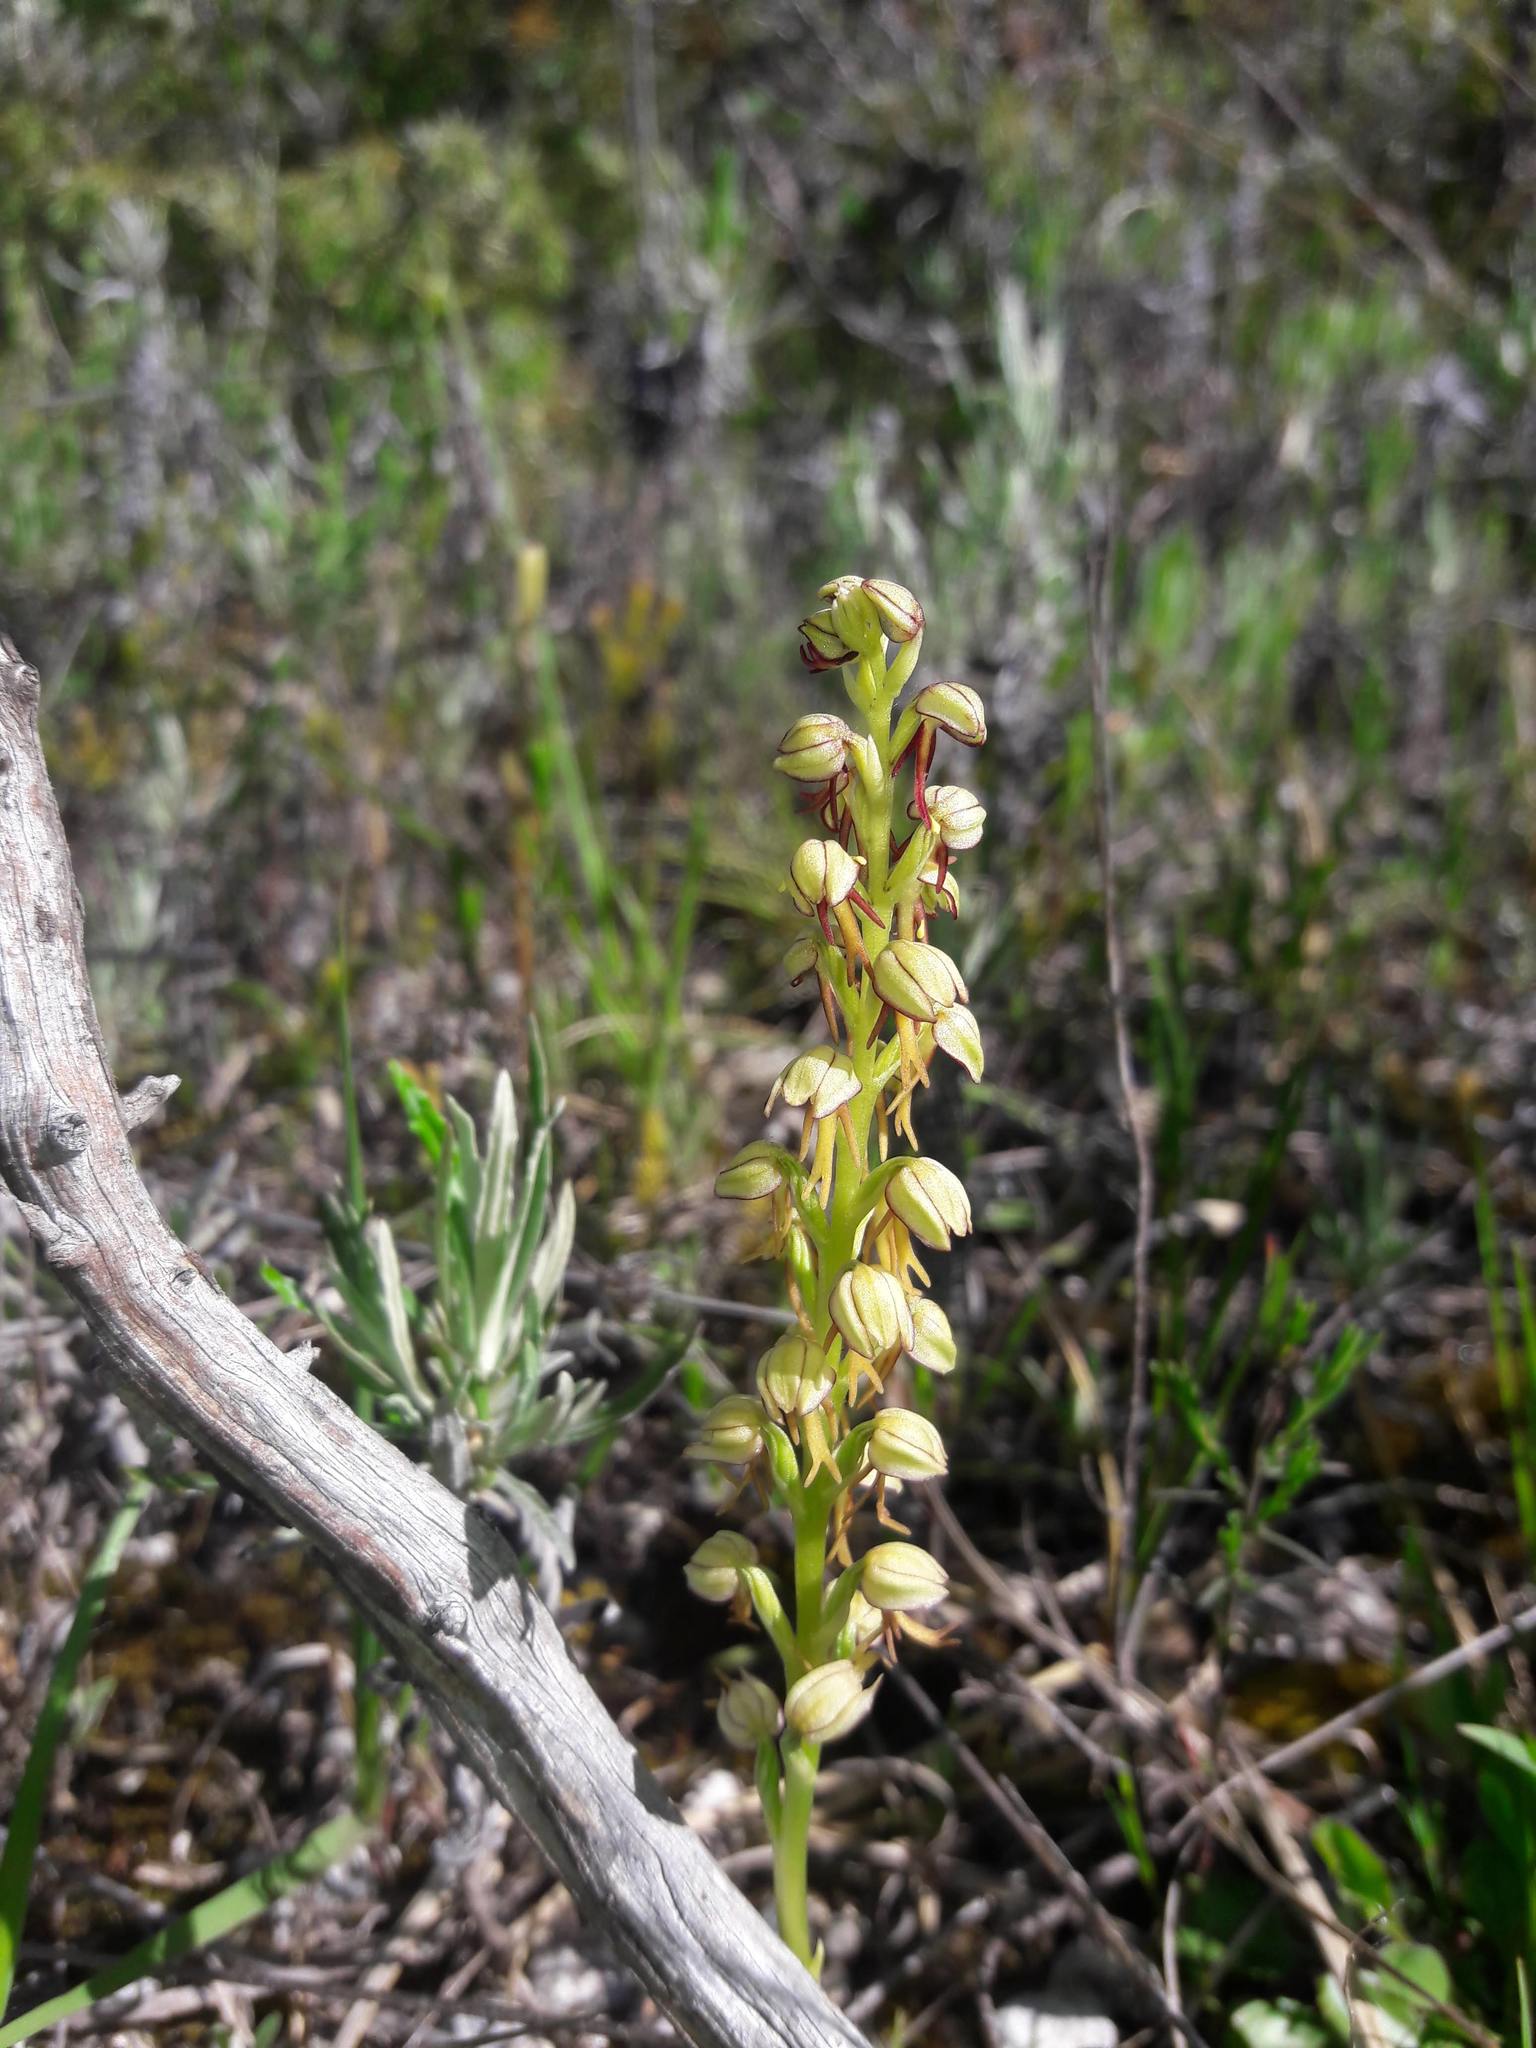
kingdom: Plantae
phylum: Tracheophyta
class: Liliopsida
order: Asparagales
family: Orchidaceae
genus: Orchis
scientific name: Orchis anthropophora
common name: Man orchid
